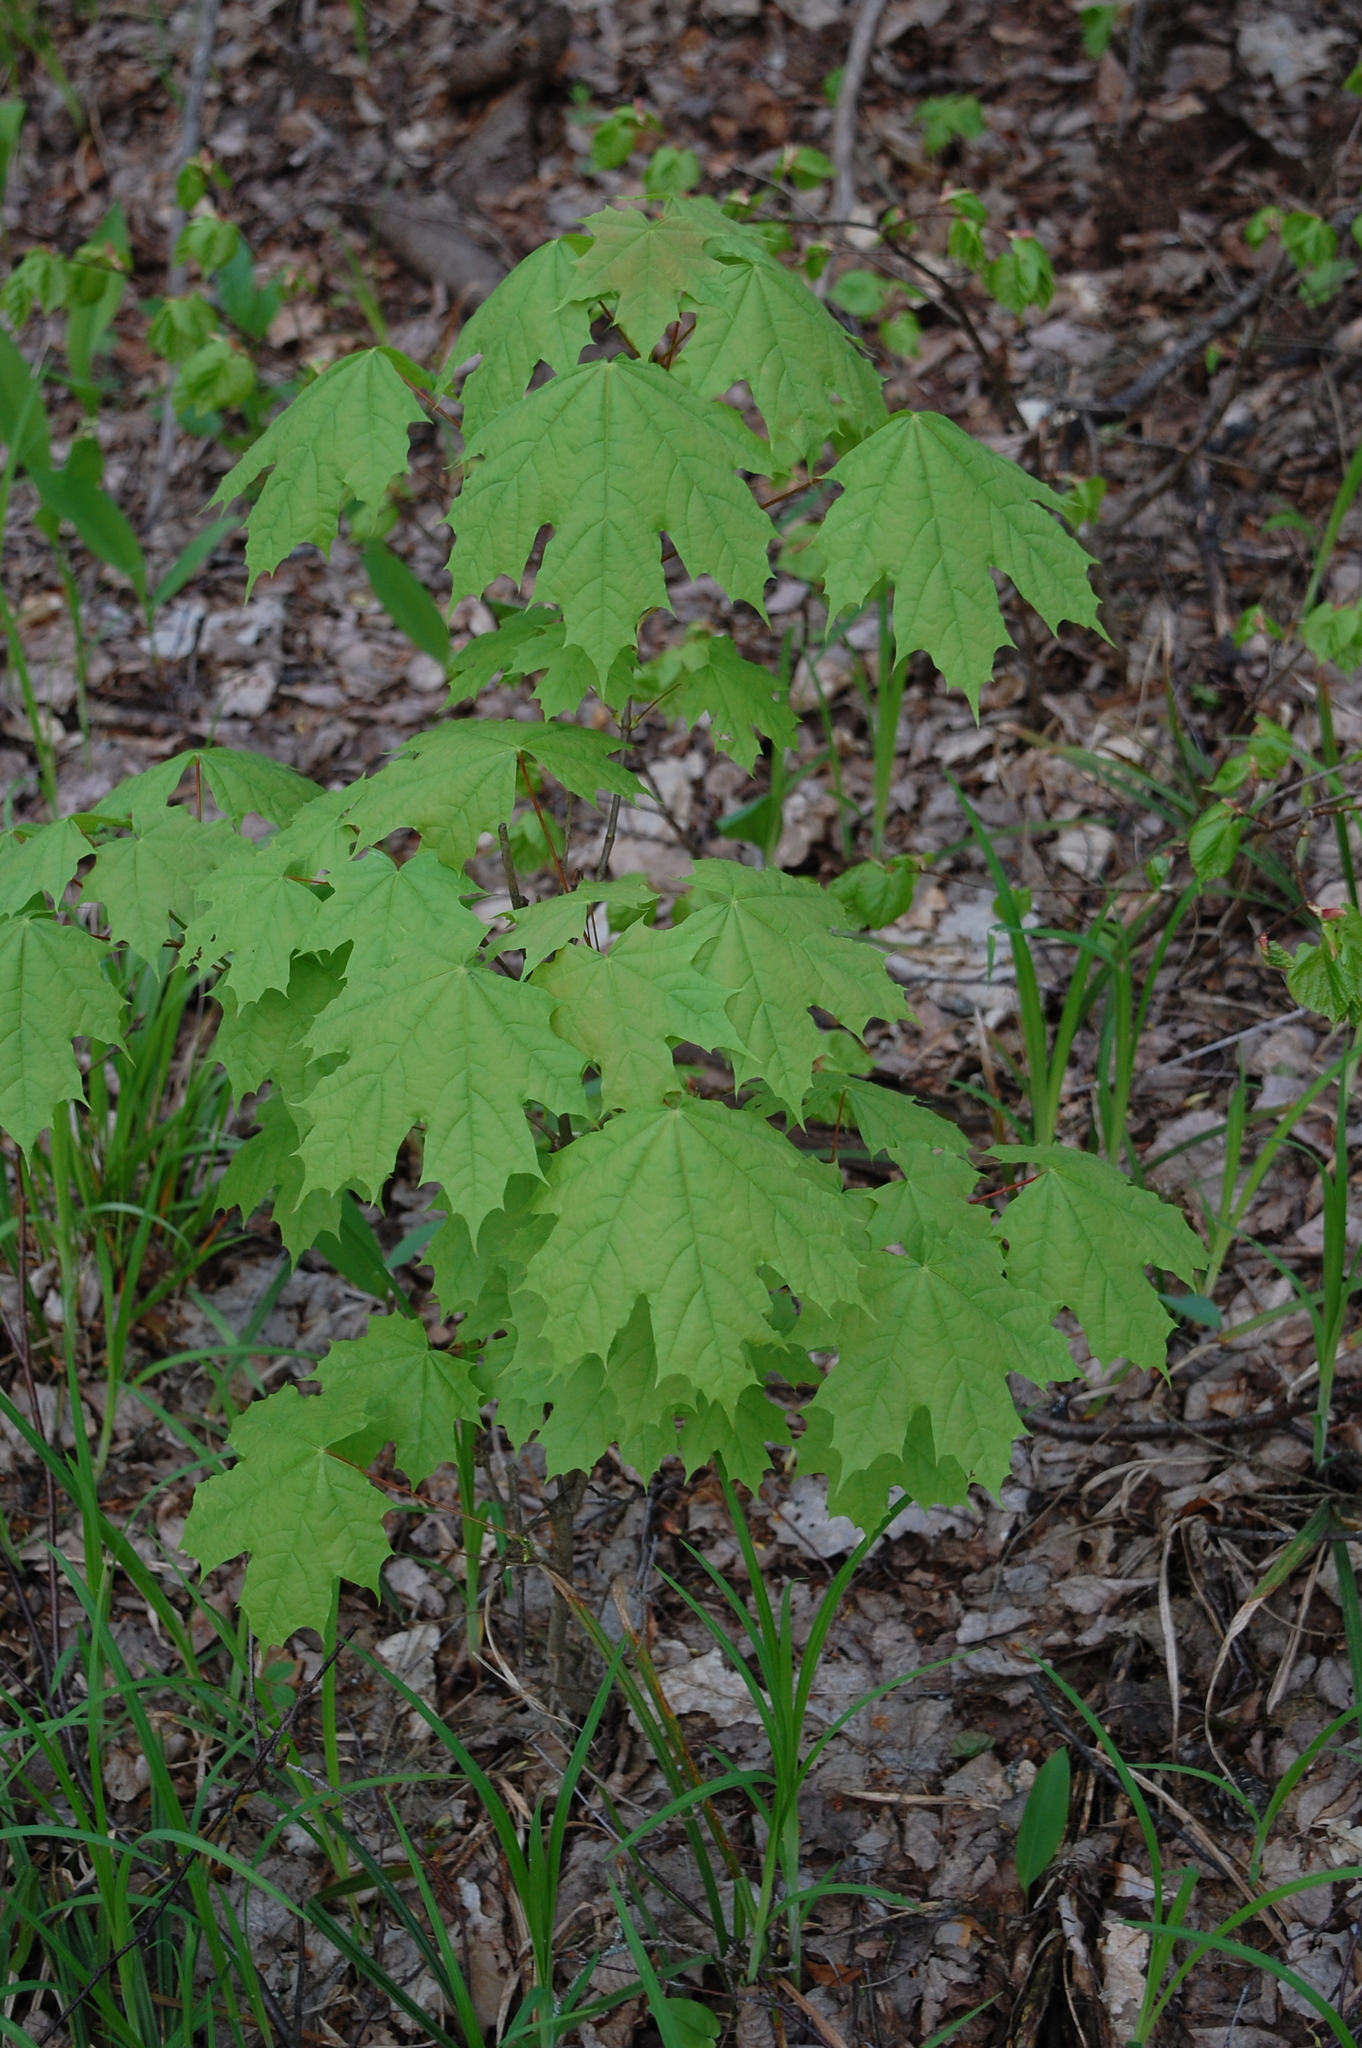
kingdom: Plantae
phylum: Tracheophyta
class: Magnoliopsida
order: Sapindales
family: Sapindaceae
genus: Acer
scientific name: Acer platanoides
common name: Norway maple
